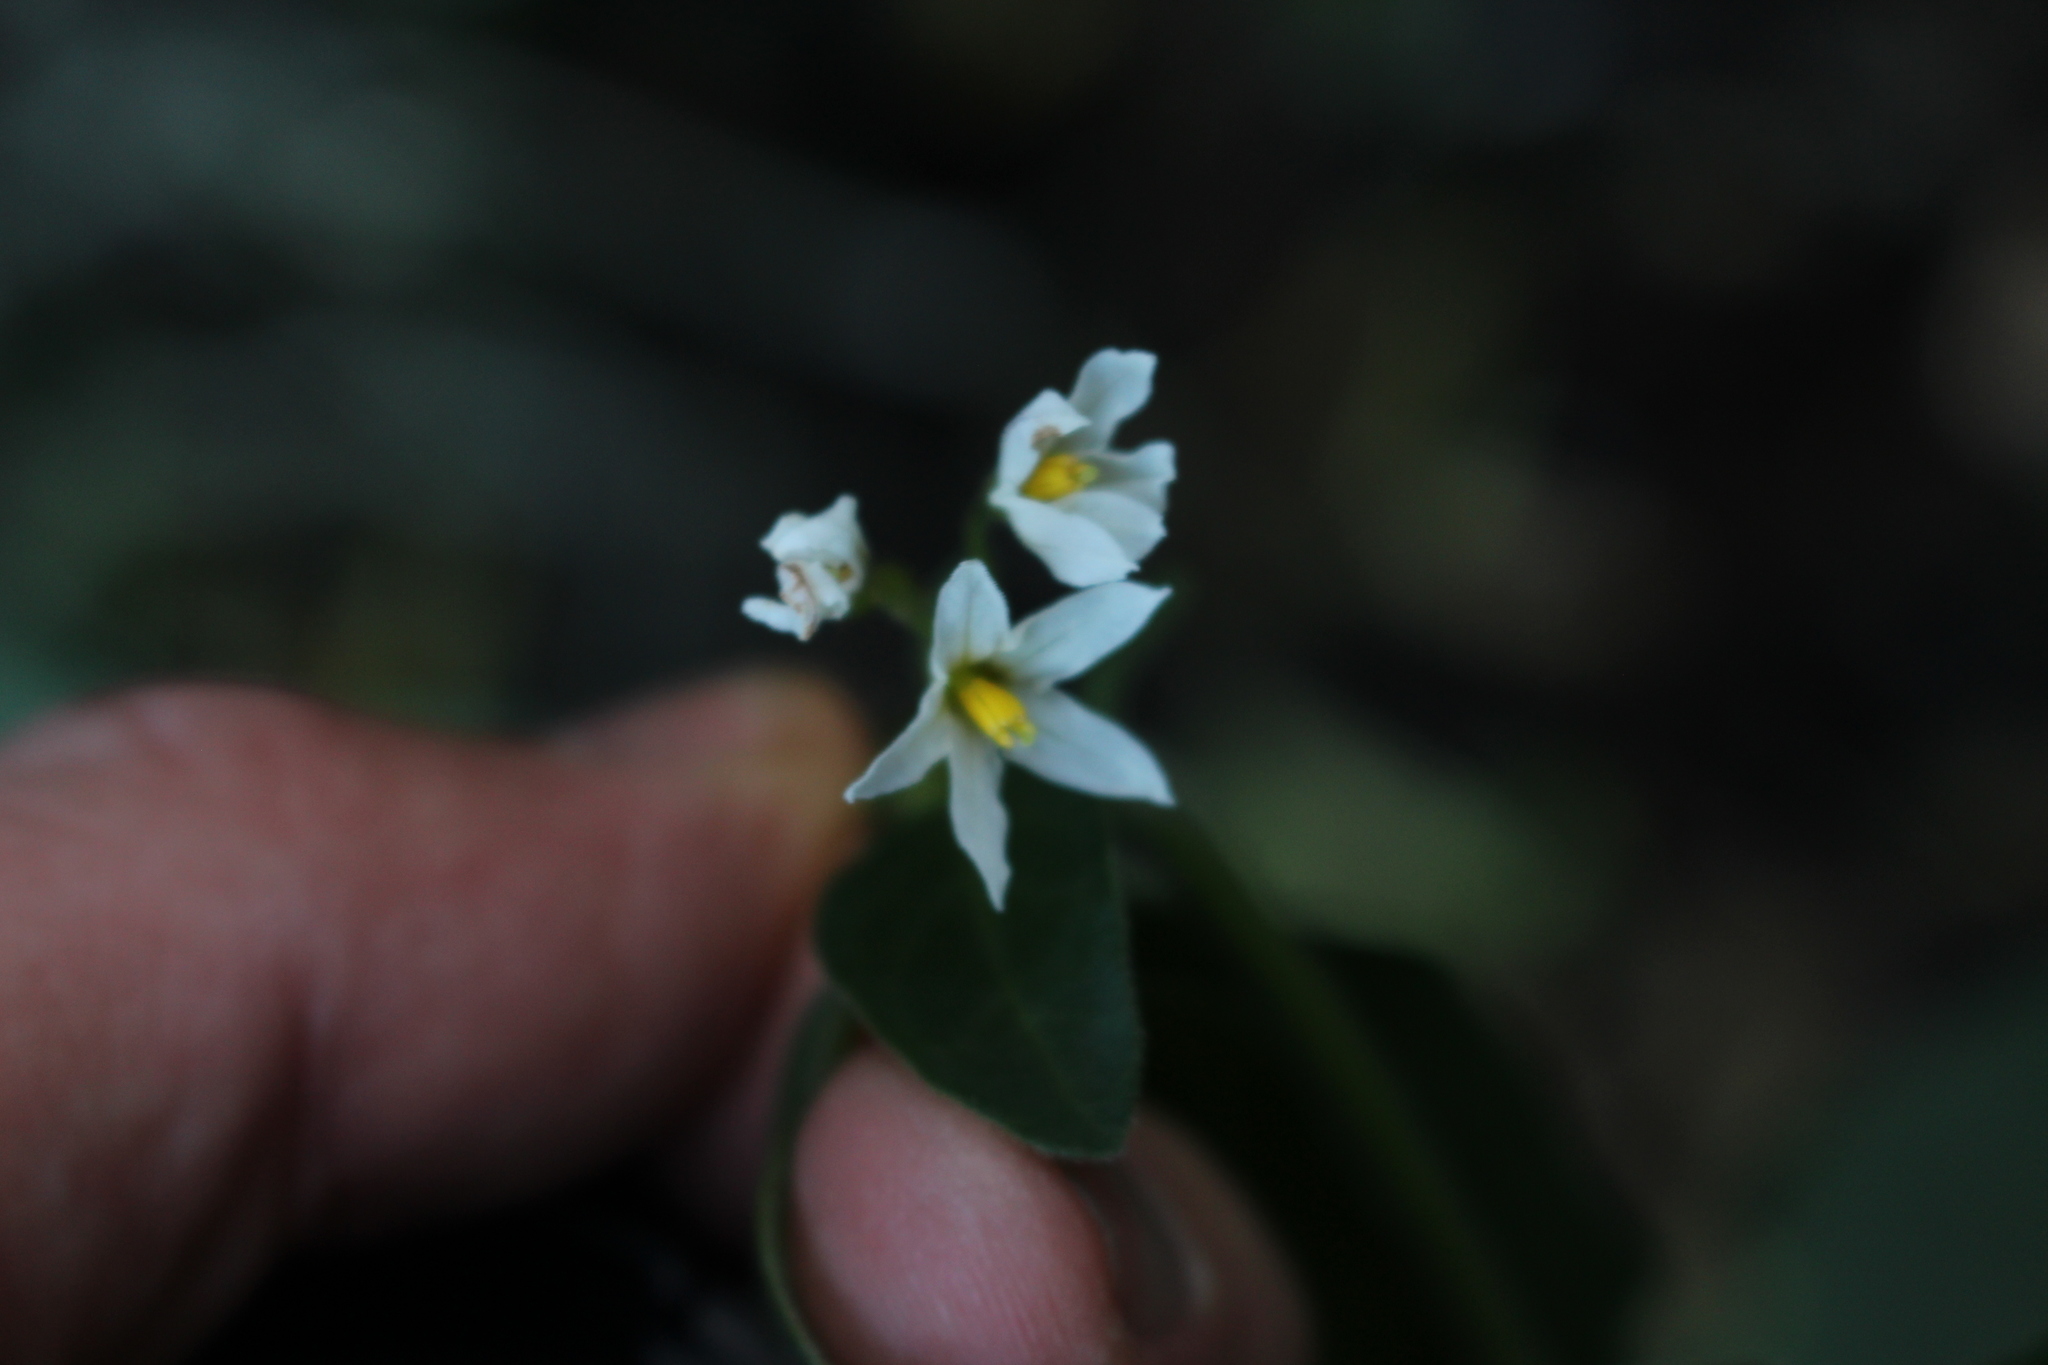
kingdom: Plantae
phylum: Tracheophyta
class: Magnoliopsida
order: Solanales
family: Solanaceae
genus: Solanum
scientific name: Solanum chenopodioides
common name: Tall nightshade
